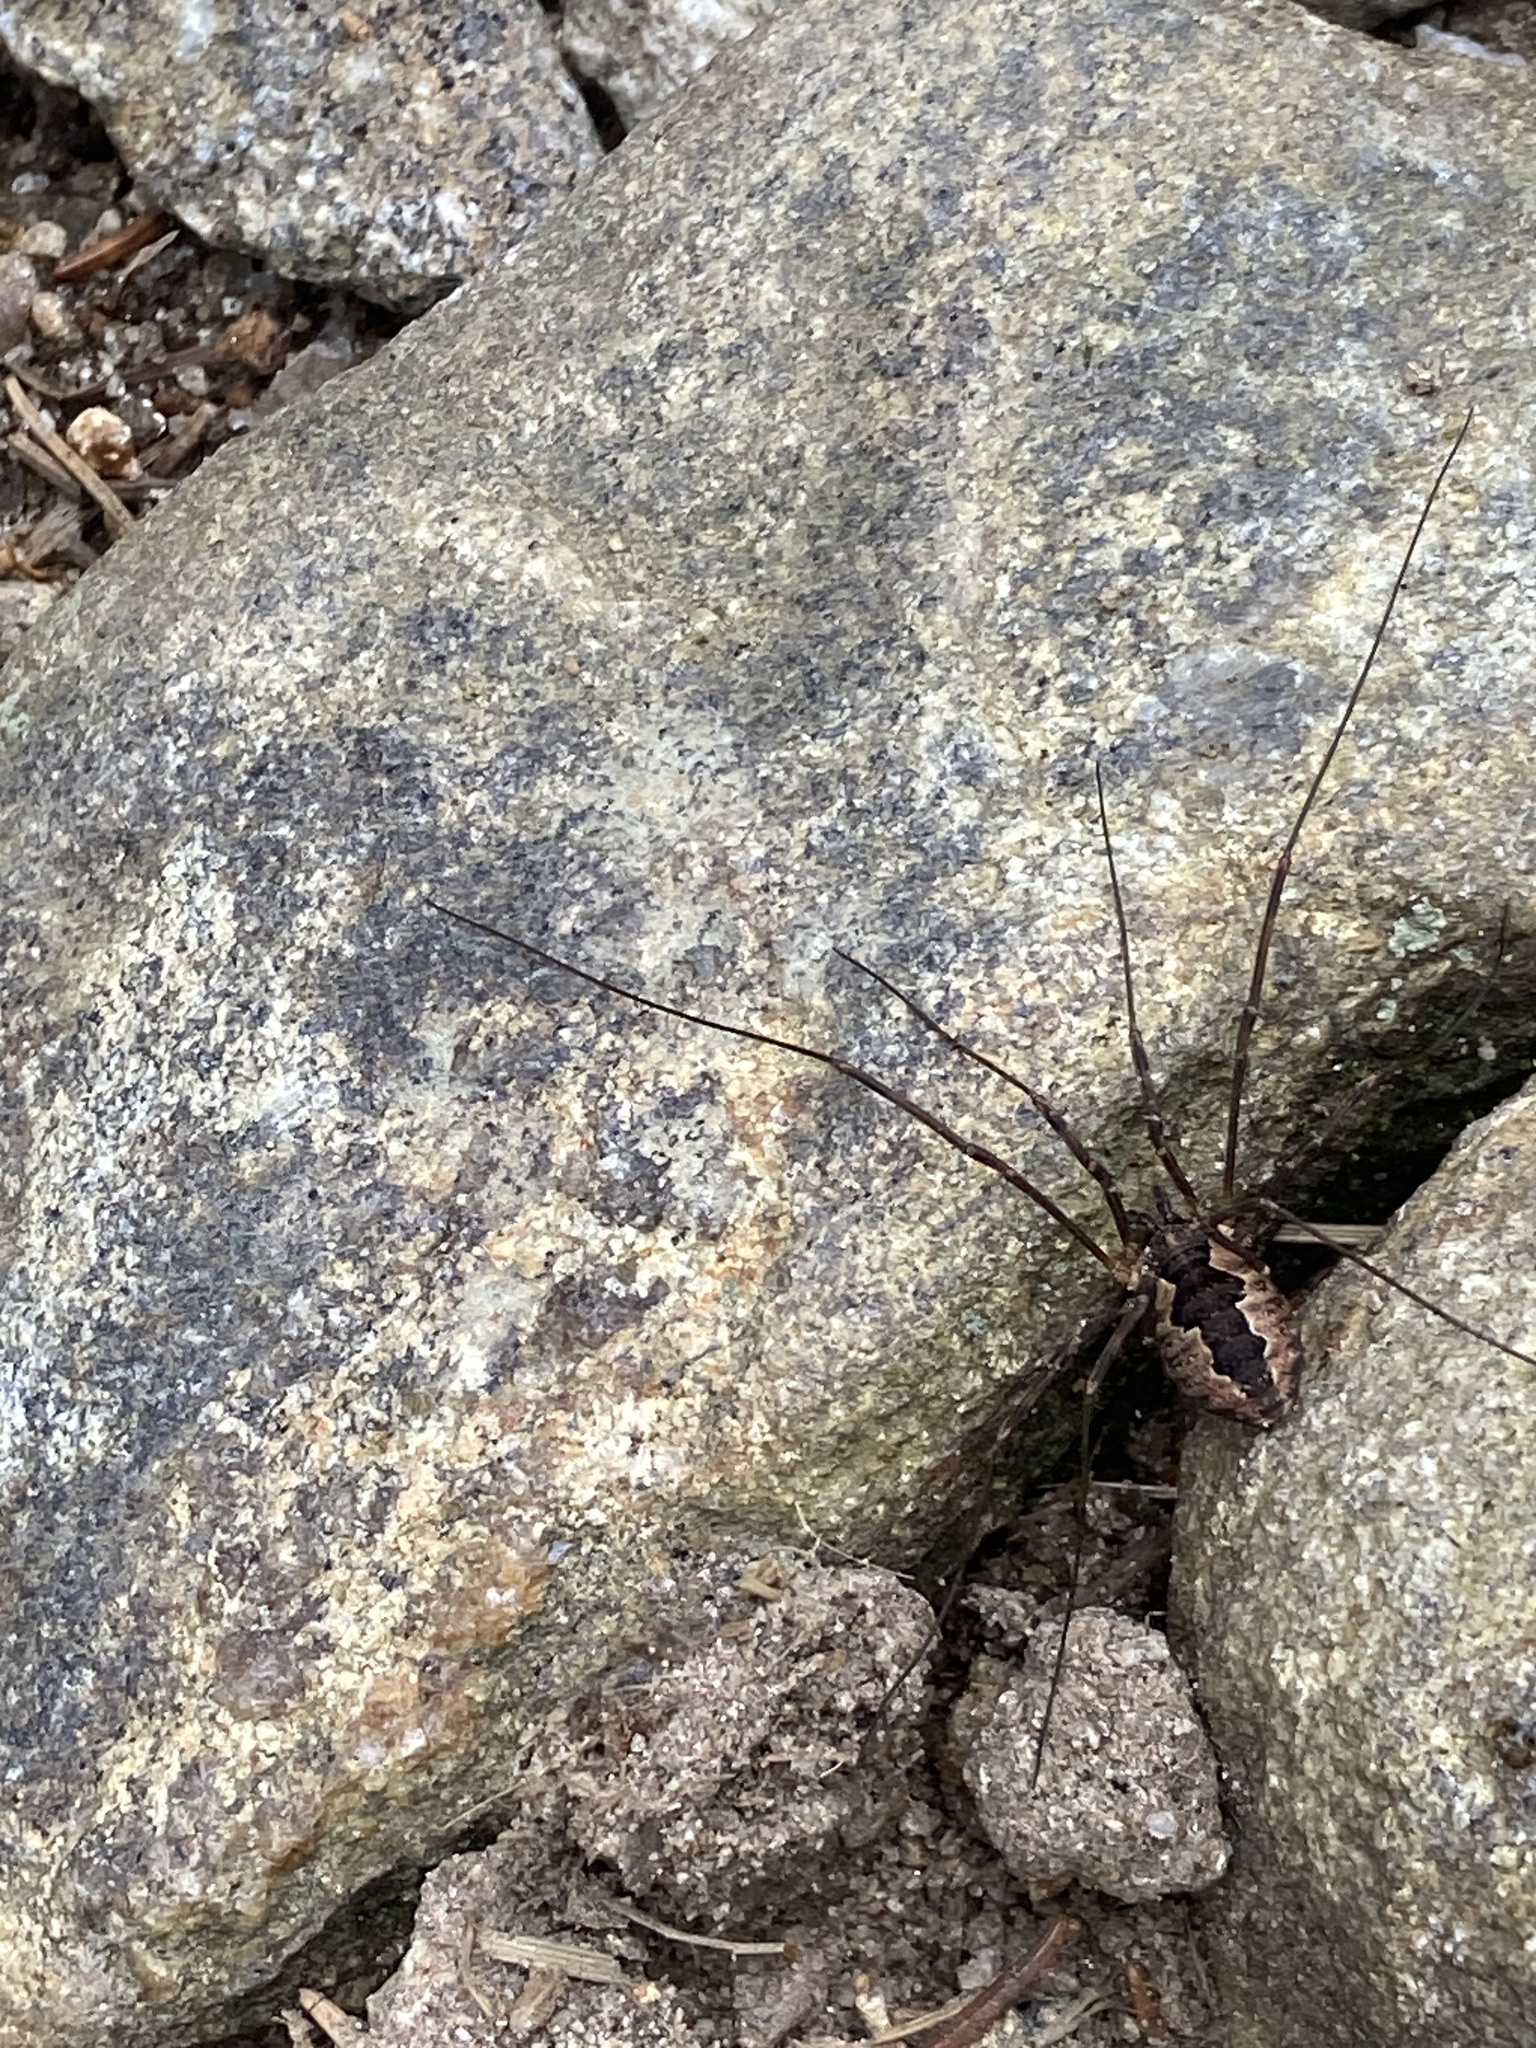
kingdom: Animalia
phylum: Arthropoda
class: Arachnida
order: Opiliones
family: Phalangiidae
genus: Mitopus
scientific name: Mitopus morio
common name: Saddleback harvestman
